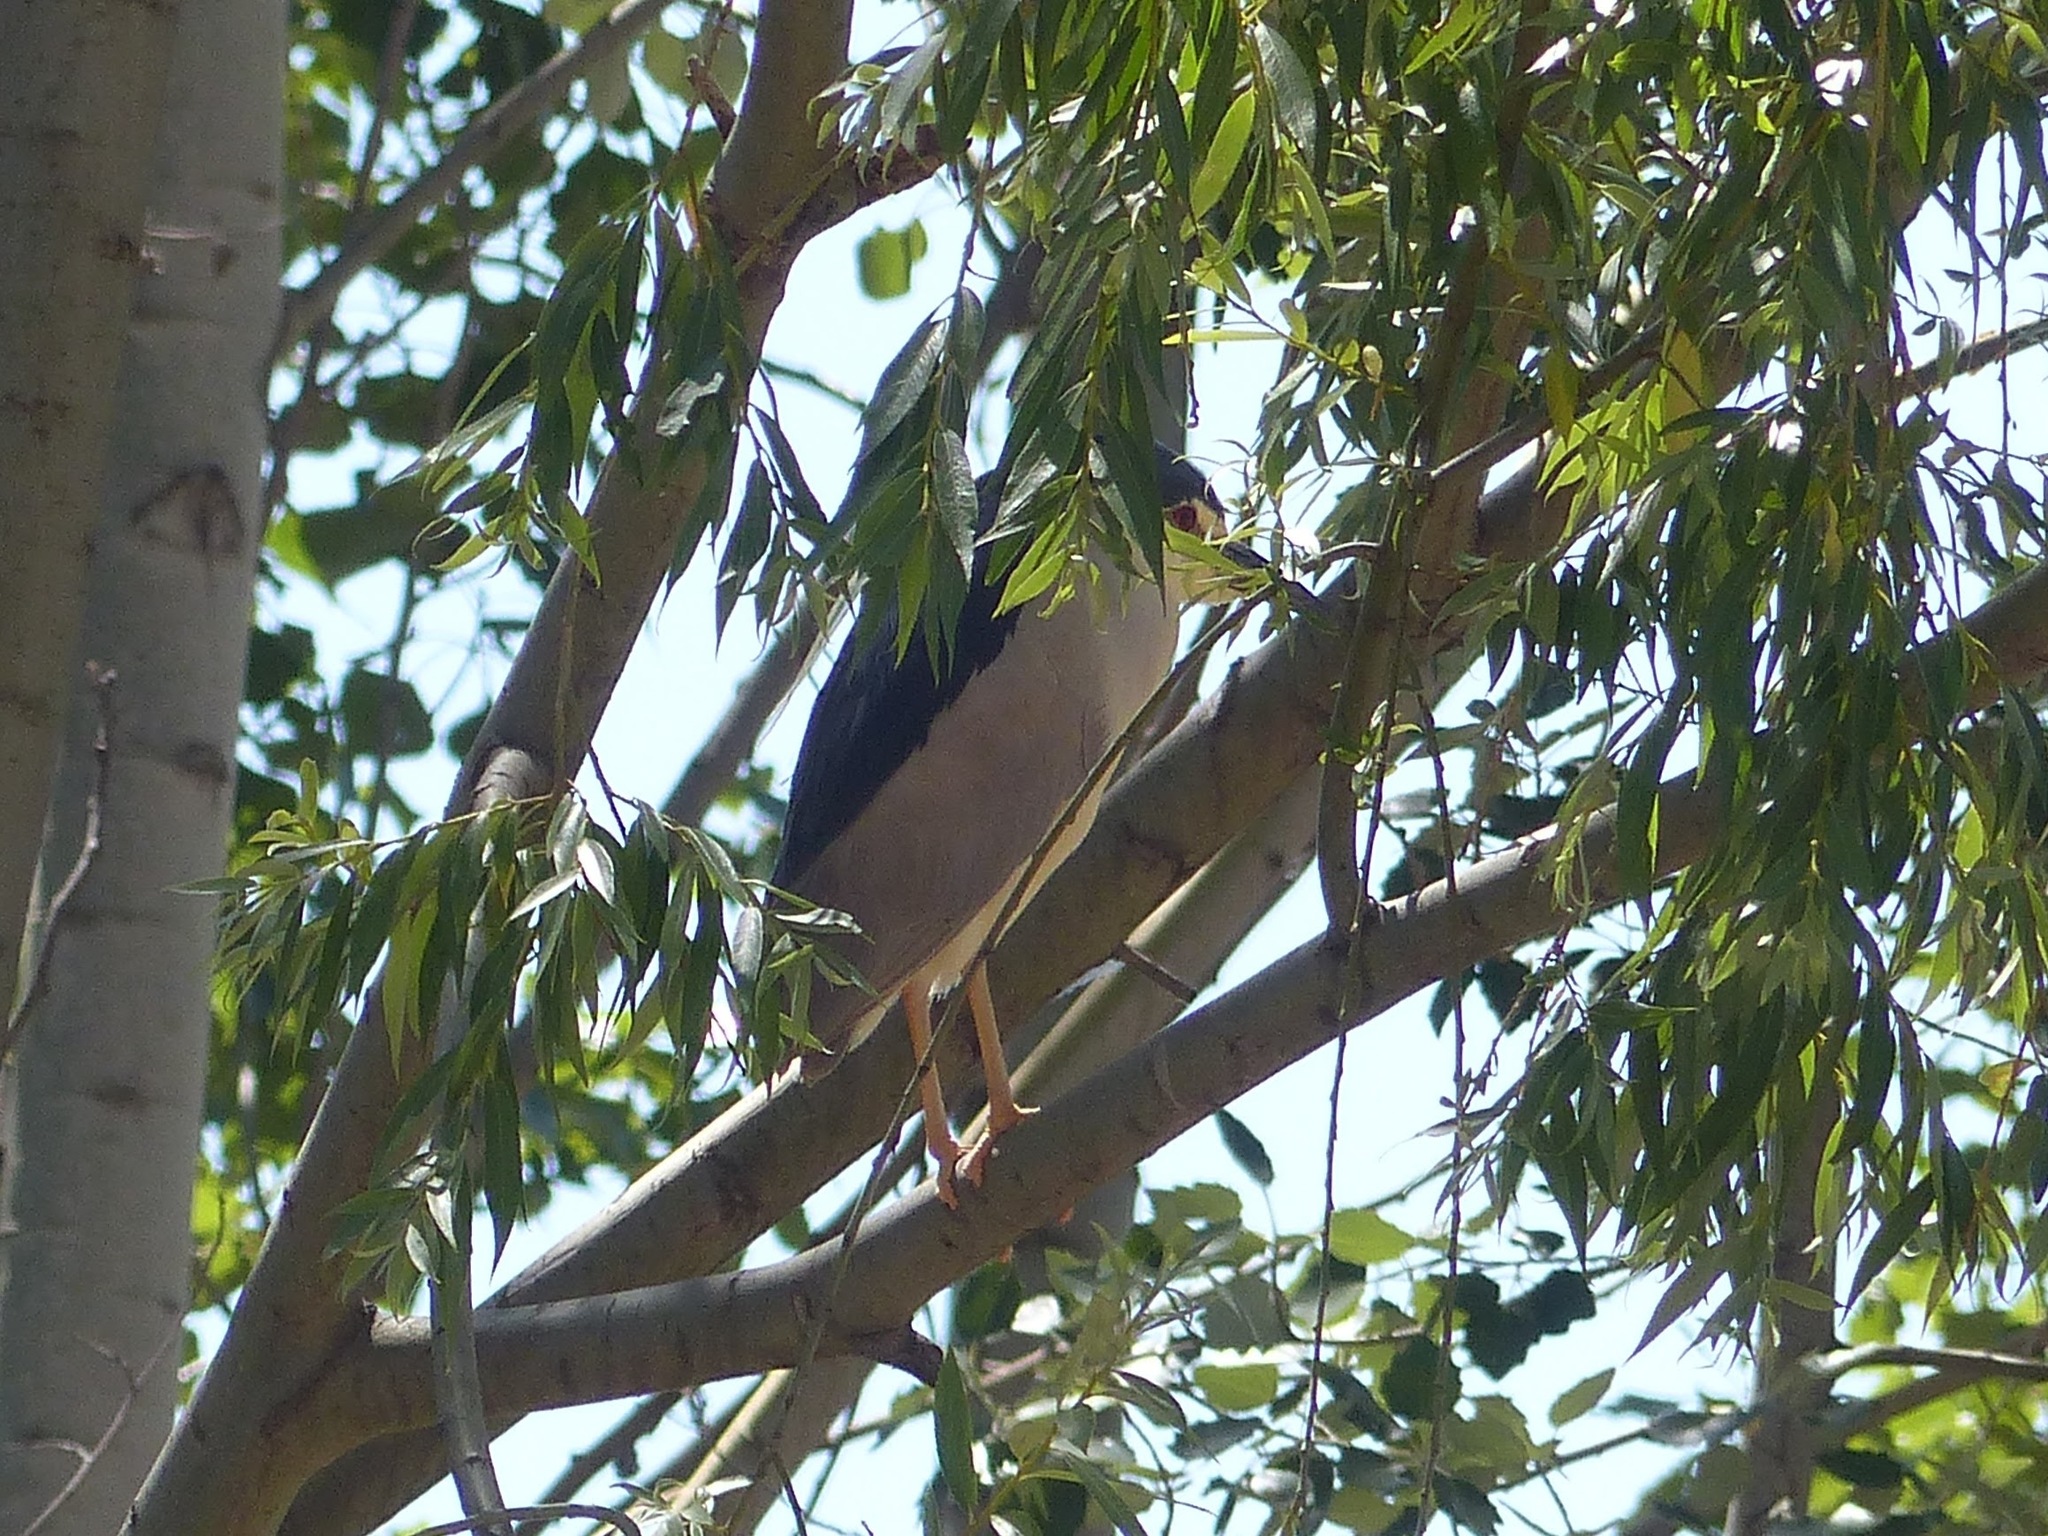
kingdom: Animalia
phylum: Chordata
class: Aves
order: Pelecaniformes
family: Ardeidae
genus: Nycticorax
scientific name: Nycticorax nycticorax
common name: Black-crowned night heron
